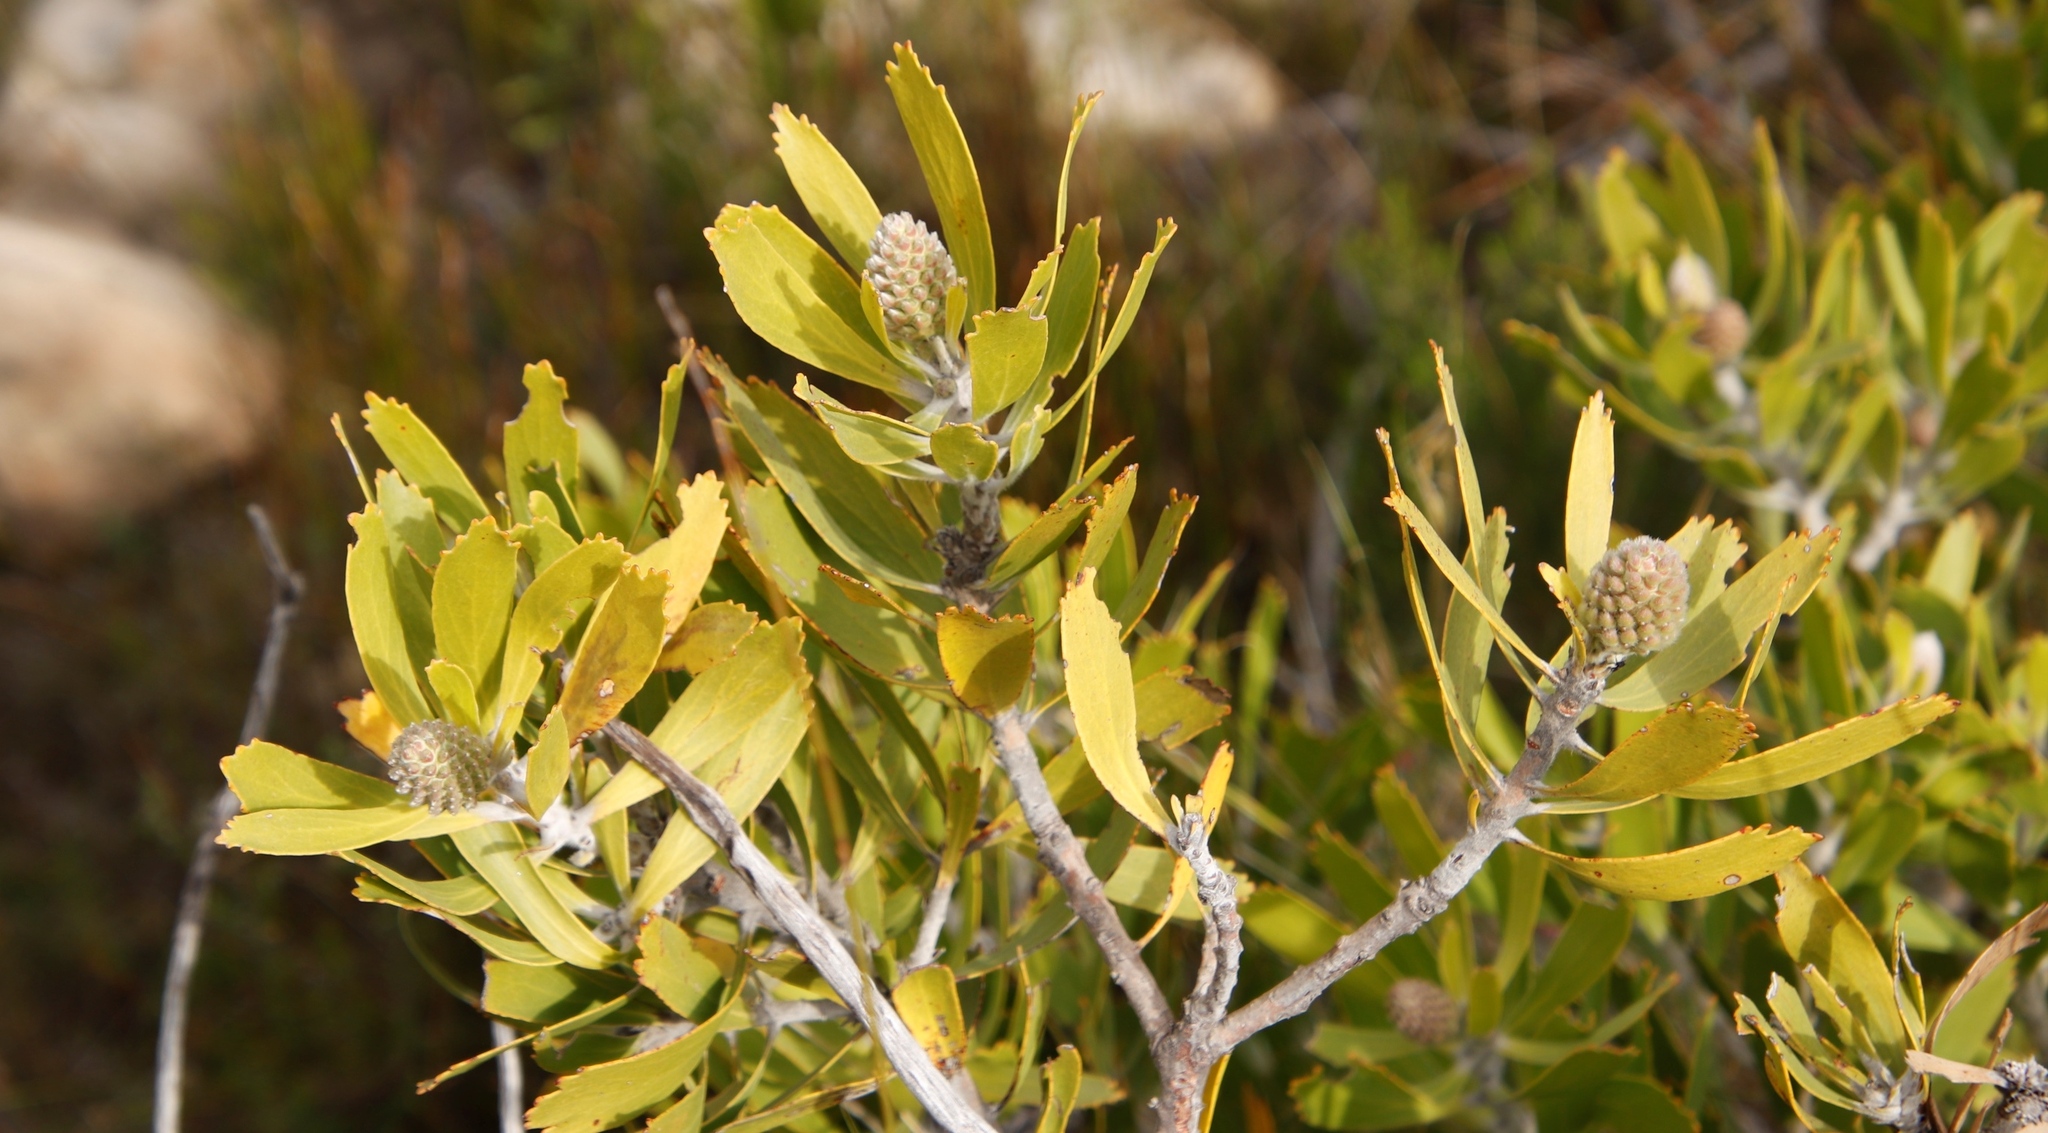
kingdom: Plantae
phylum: Tracheophyta
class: Magnoliopsida
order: Proteales
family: Proteaceae
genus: Leucospermum
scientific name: Leucospermum cuneiforme
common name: Common pincushion
